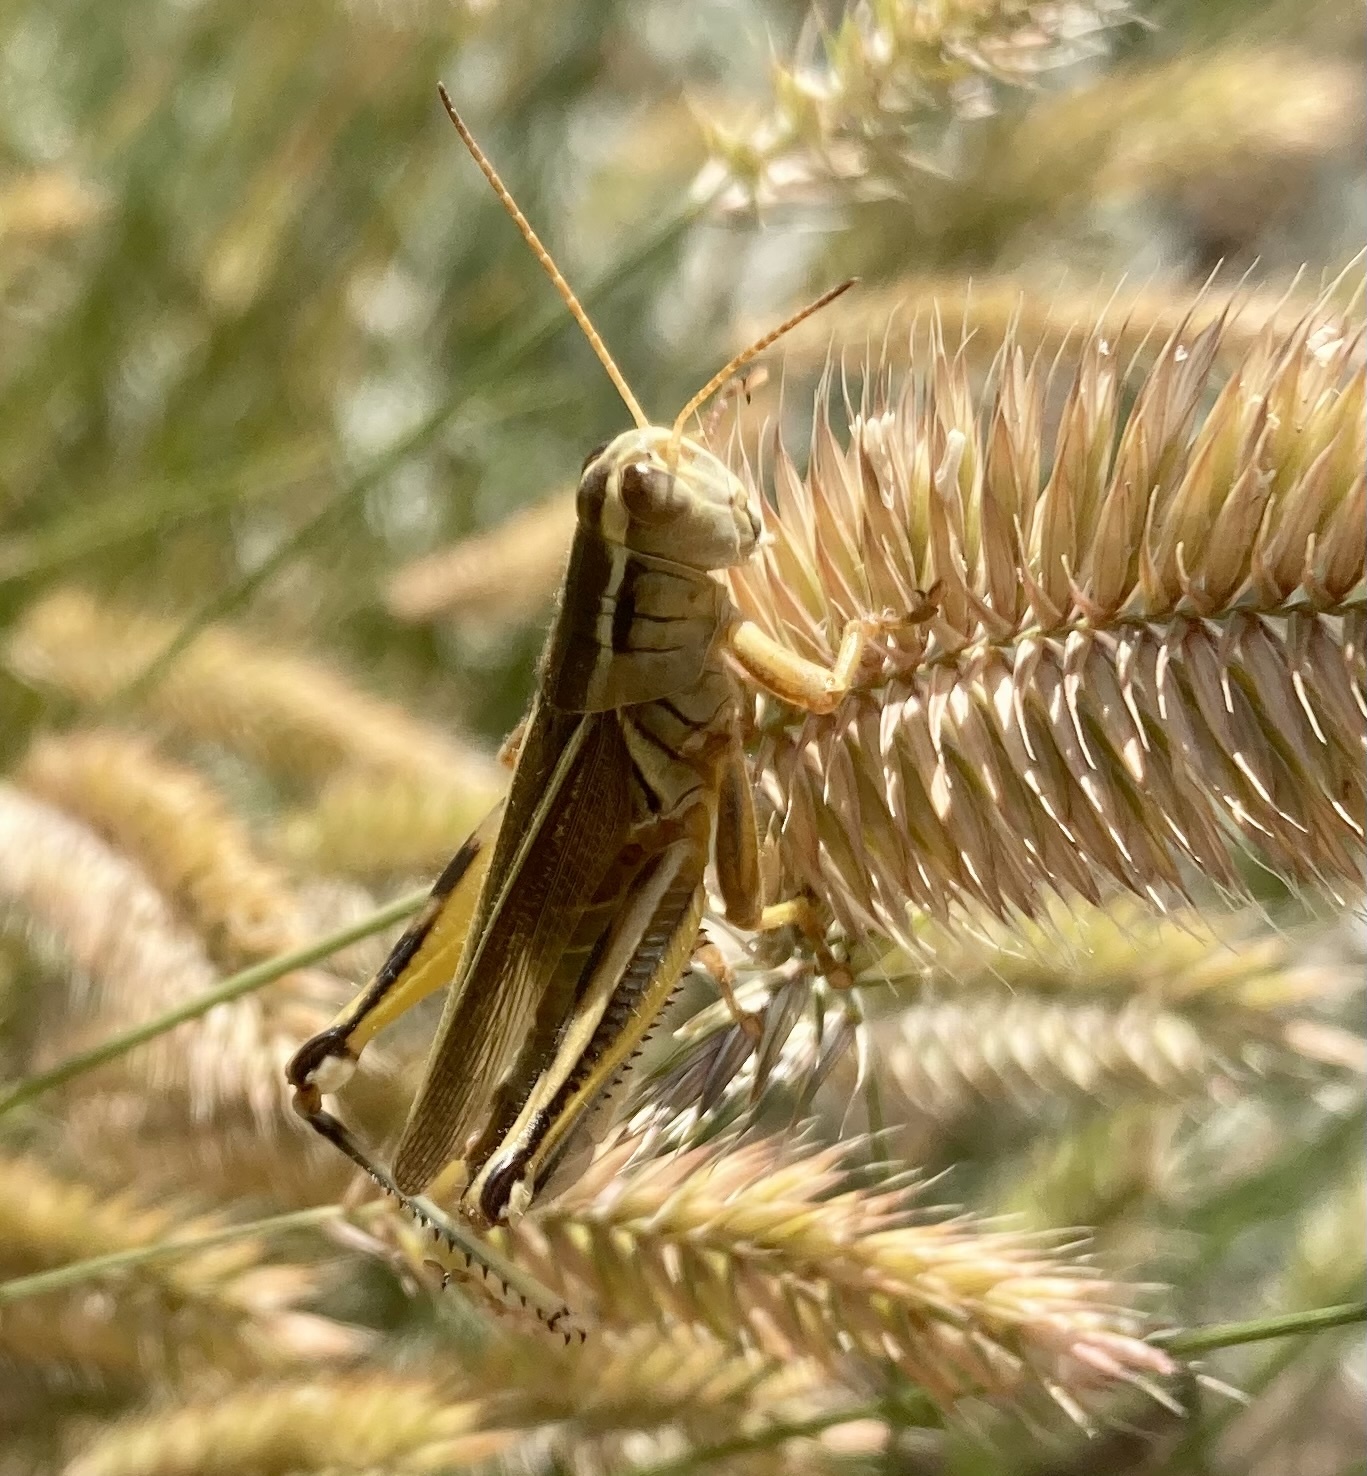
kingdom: Animalia
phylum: Arthropoda
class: Insecta
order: Orthoptera
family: Acrididae
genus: Melanoplus
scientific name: Melanoplus bivittatus
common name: Two-striped grasshopper
